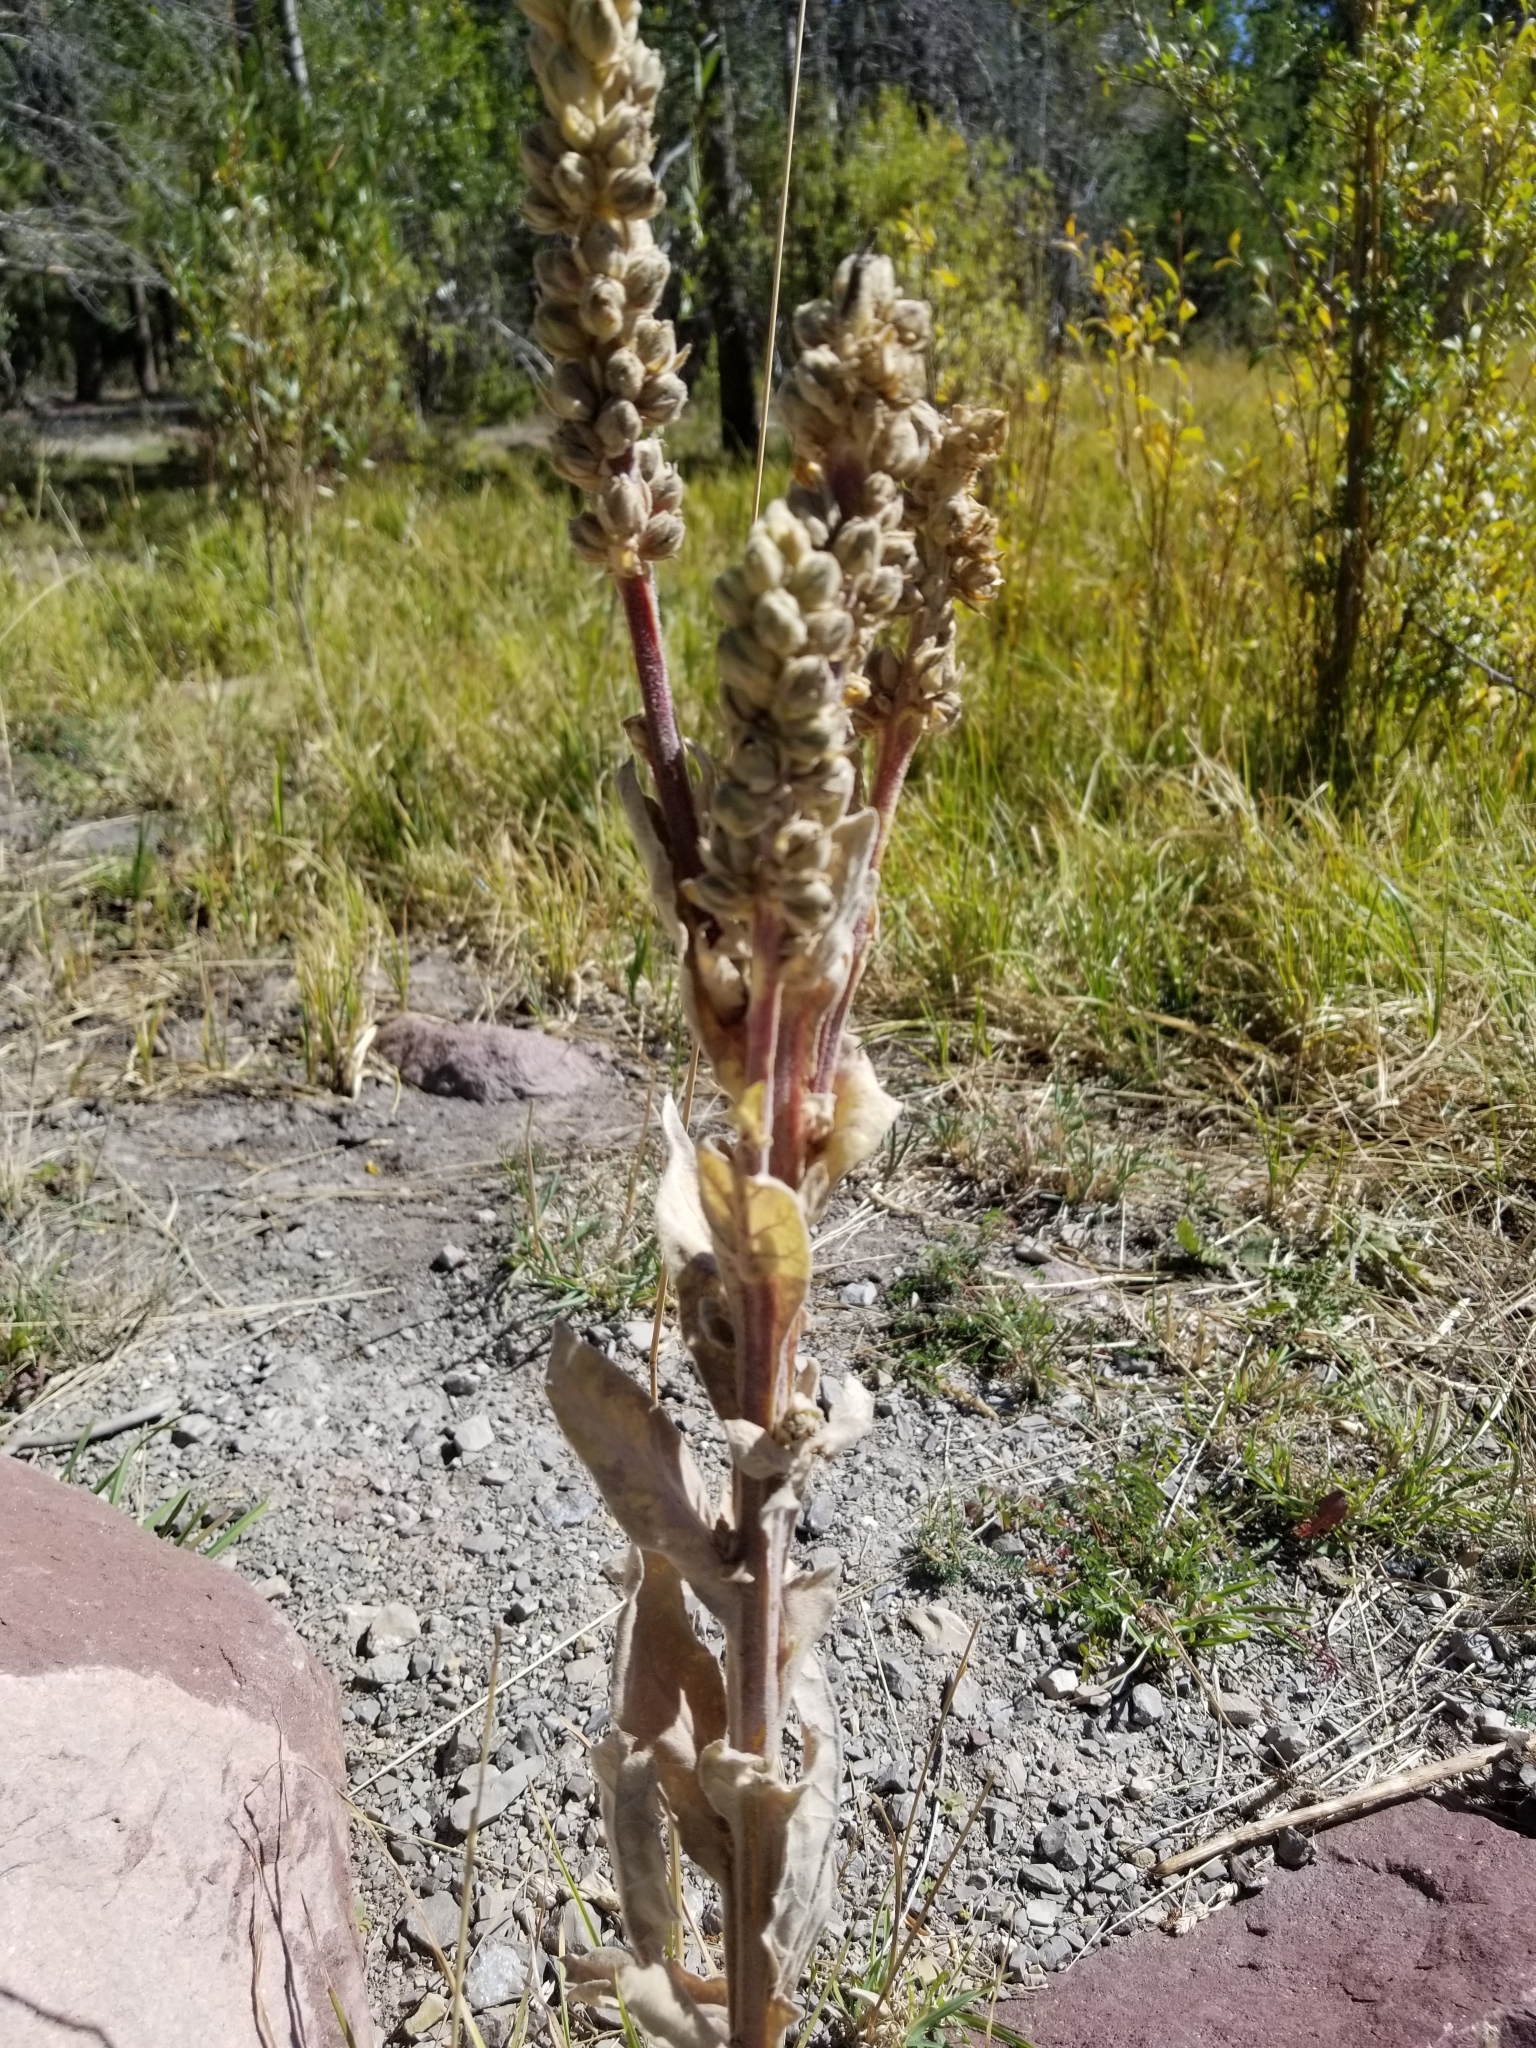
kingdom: Plantae
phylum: Tracheophyta
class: Magnoliopsida
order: Lamiales
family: Scrophulariaceae
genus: Verbascum
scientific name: Verbascum thapsus
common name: Common mullein
